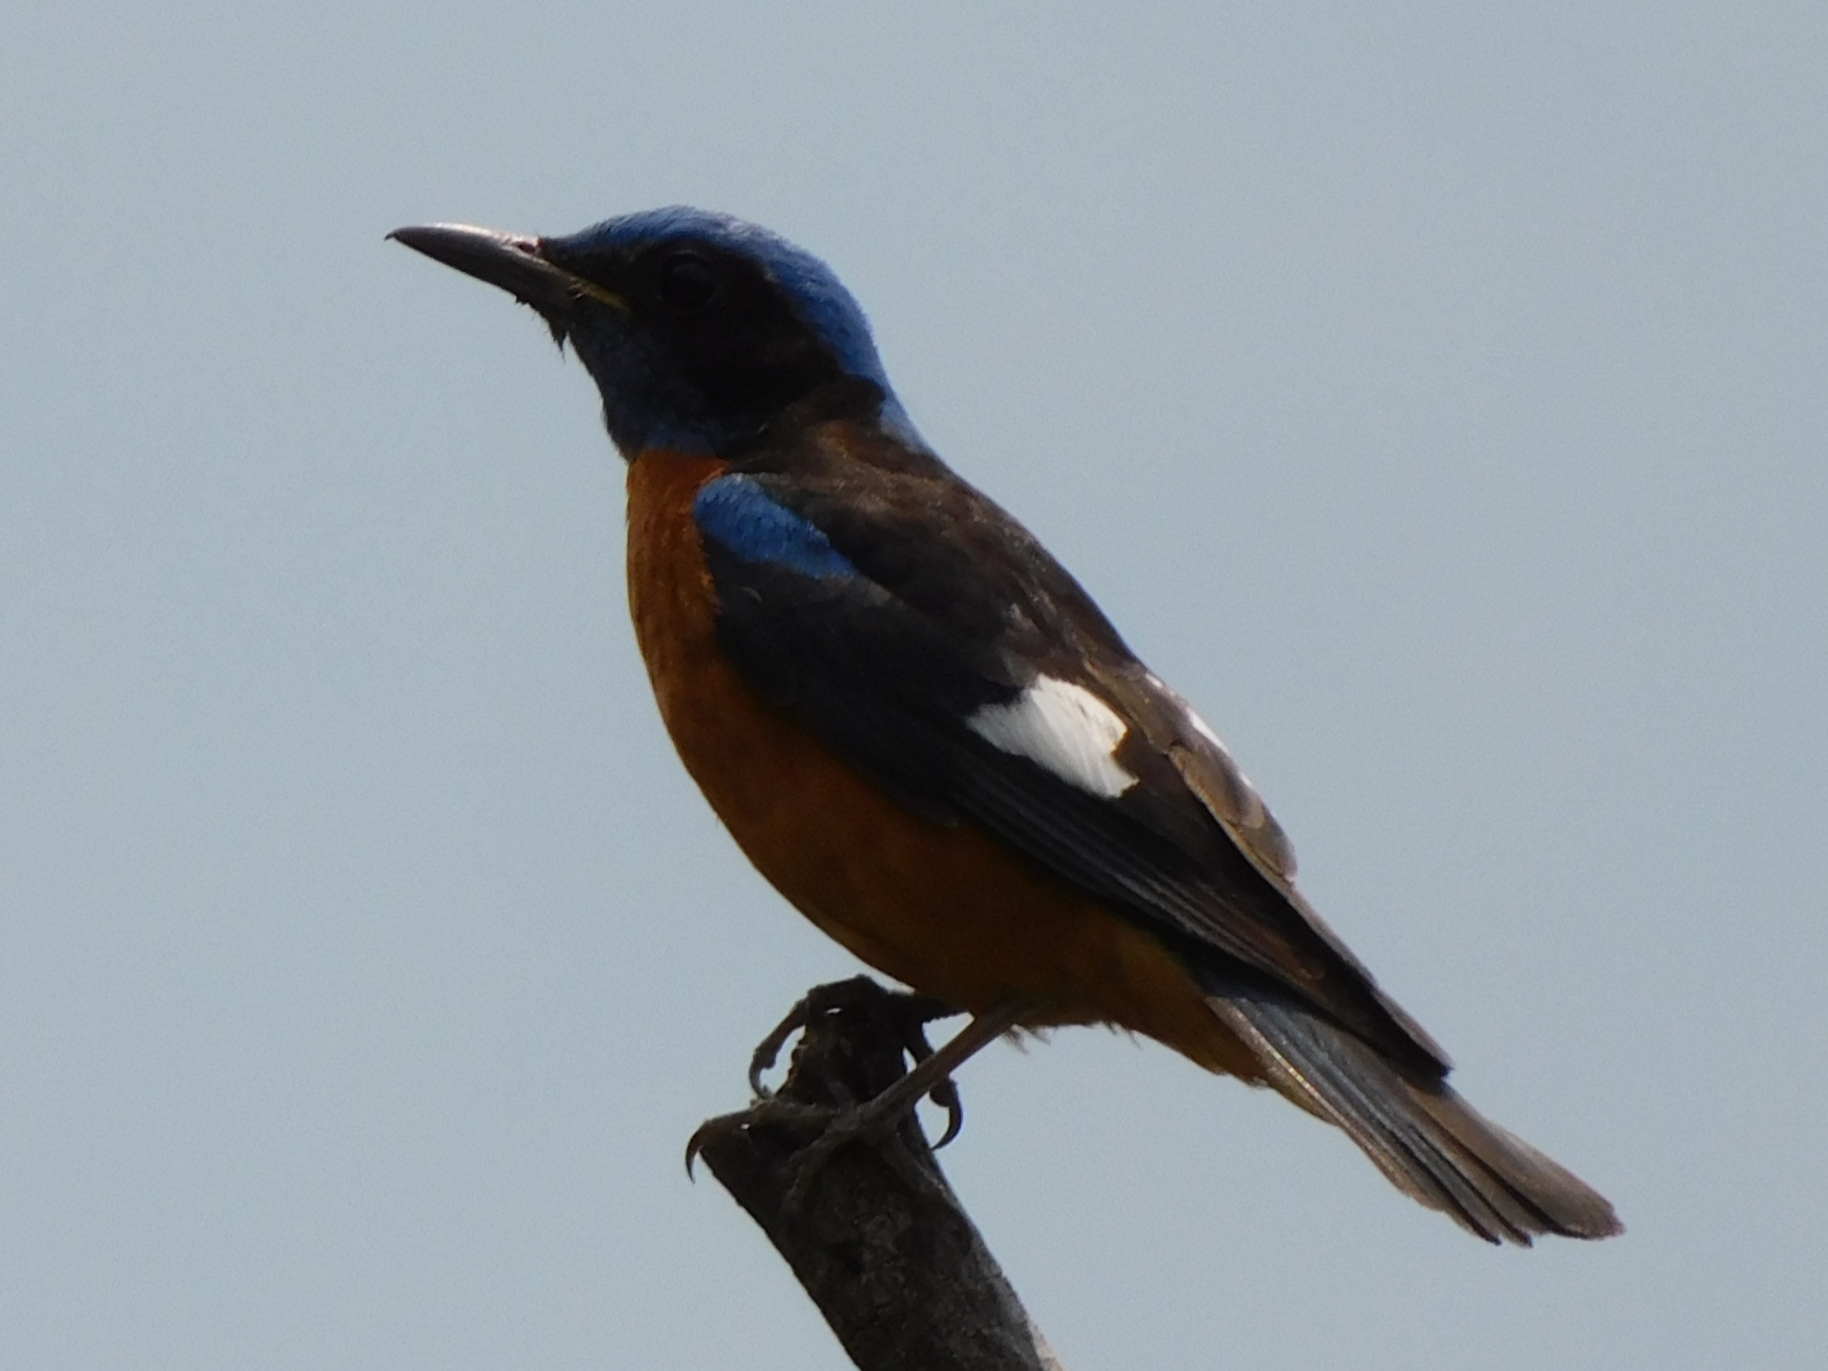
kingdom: Animalia
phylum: Chordata
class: Aves
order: Passeriformes
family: Muscicapidae
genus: Monticola
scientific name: Monticola cinclorhynchus
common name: Blue-capped rock thrush
